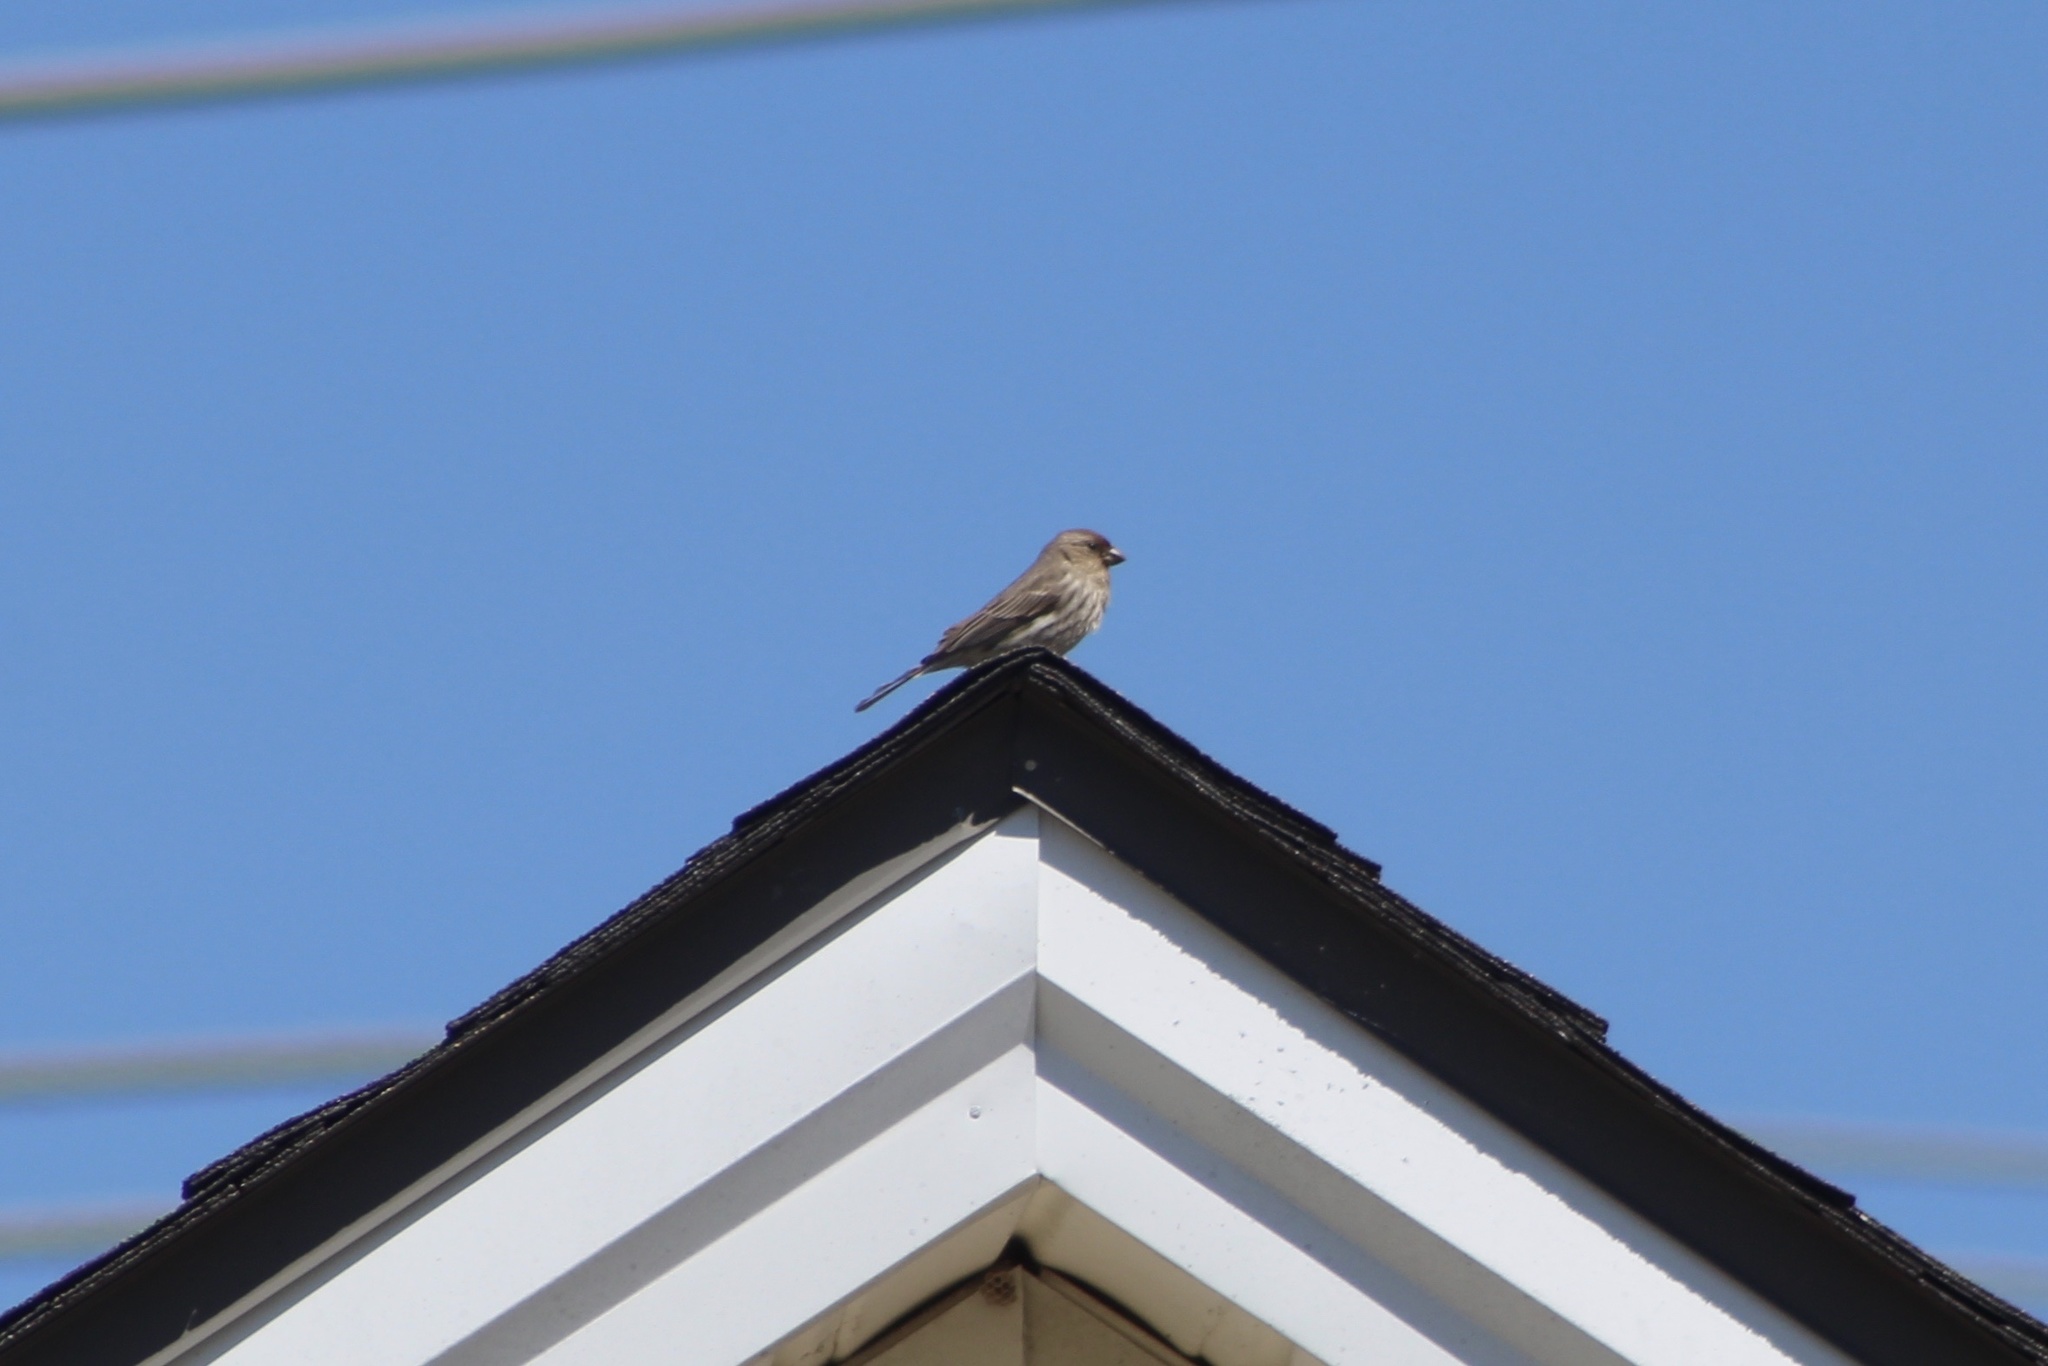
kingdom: Animalia
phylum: Chordata
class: Aves
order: Passeriformes
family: Fringillidae
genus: Haemorhous
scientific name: Haemorhous mexicanus
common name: House finch
